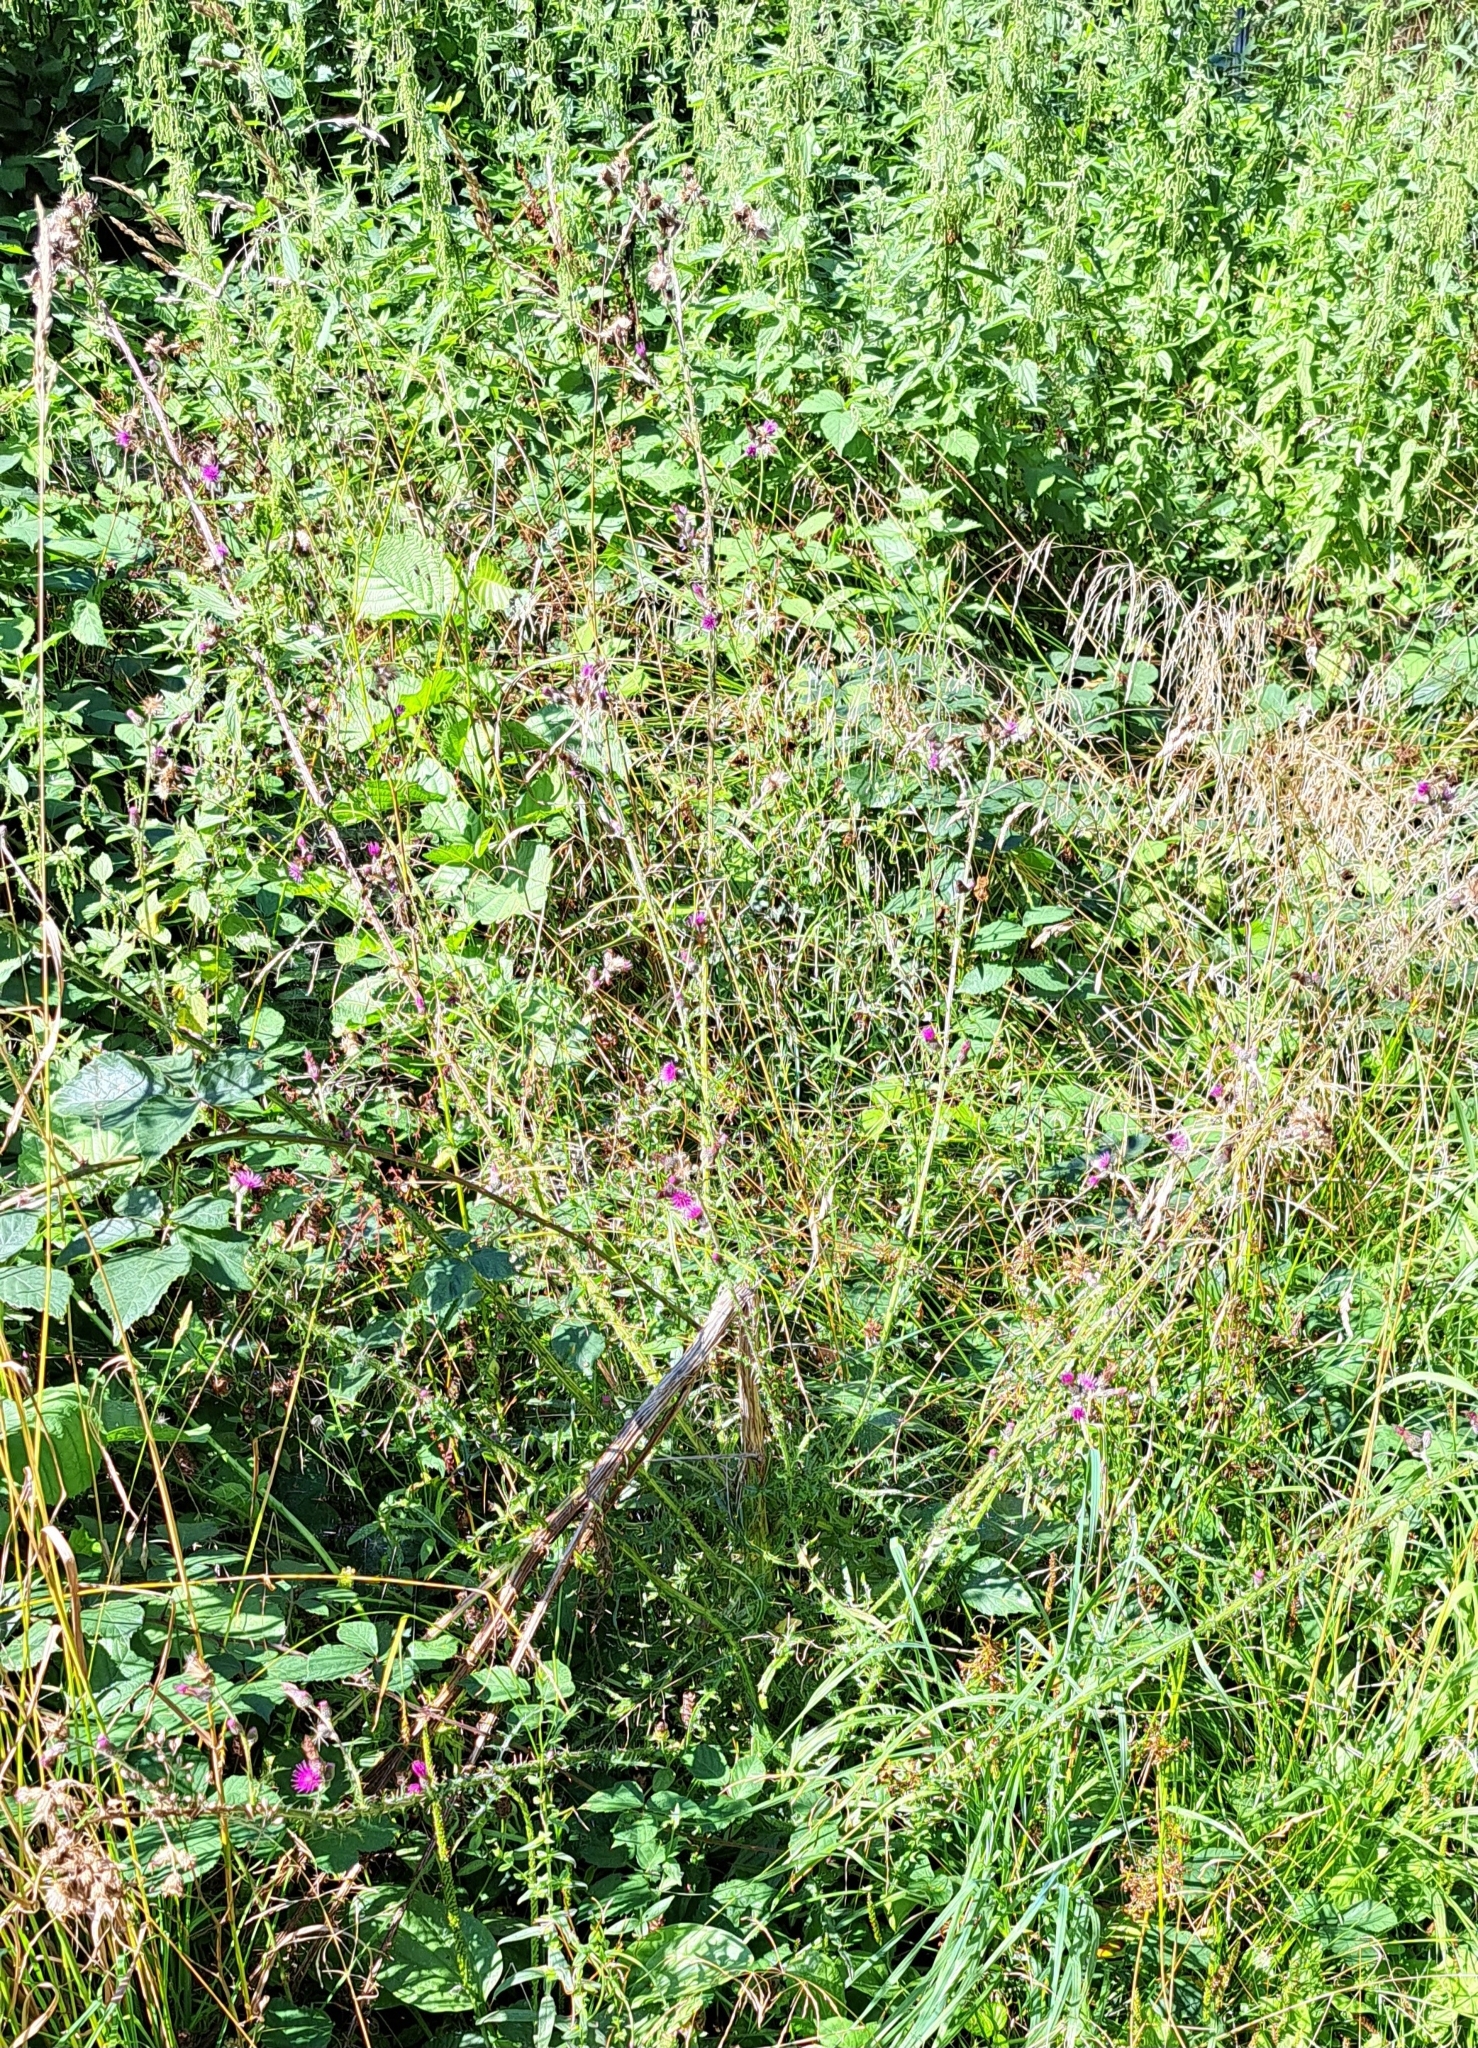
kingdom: Plantae
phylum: Tracheophyta
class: Magnoliopsida
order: Asterales
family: Asteraceae
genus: Cirsium
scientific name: Cirsium palustre
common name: Marsh thistle
